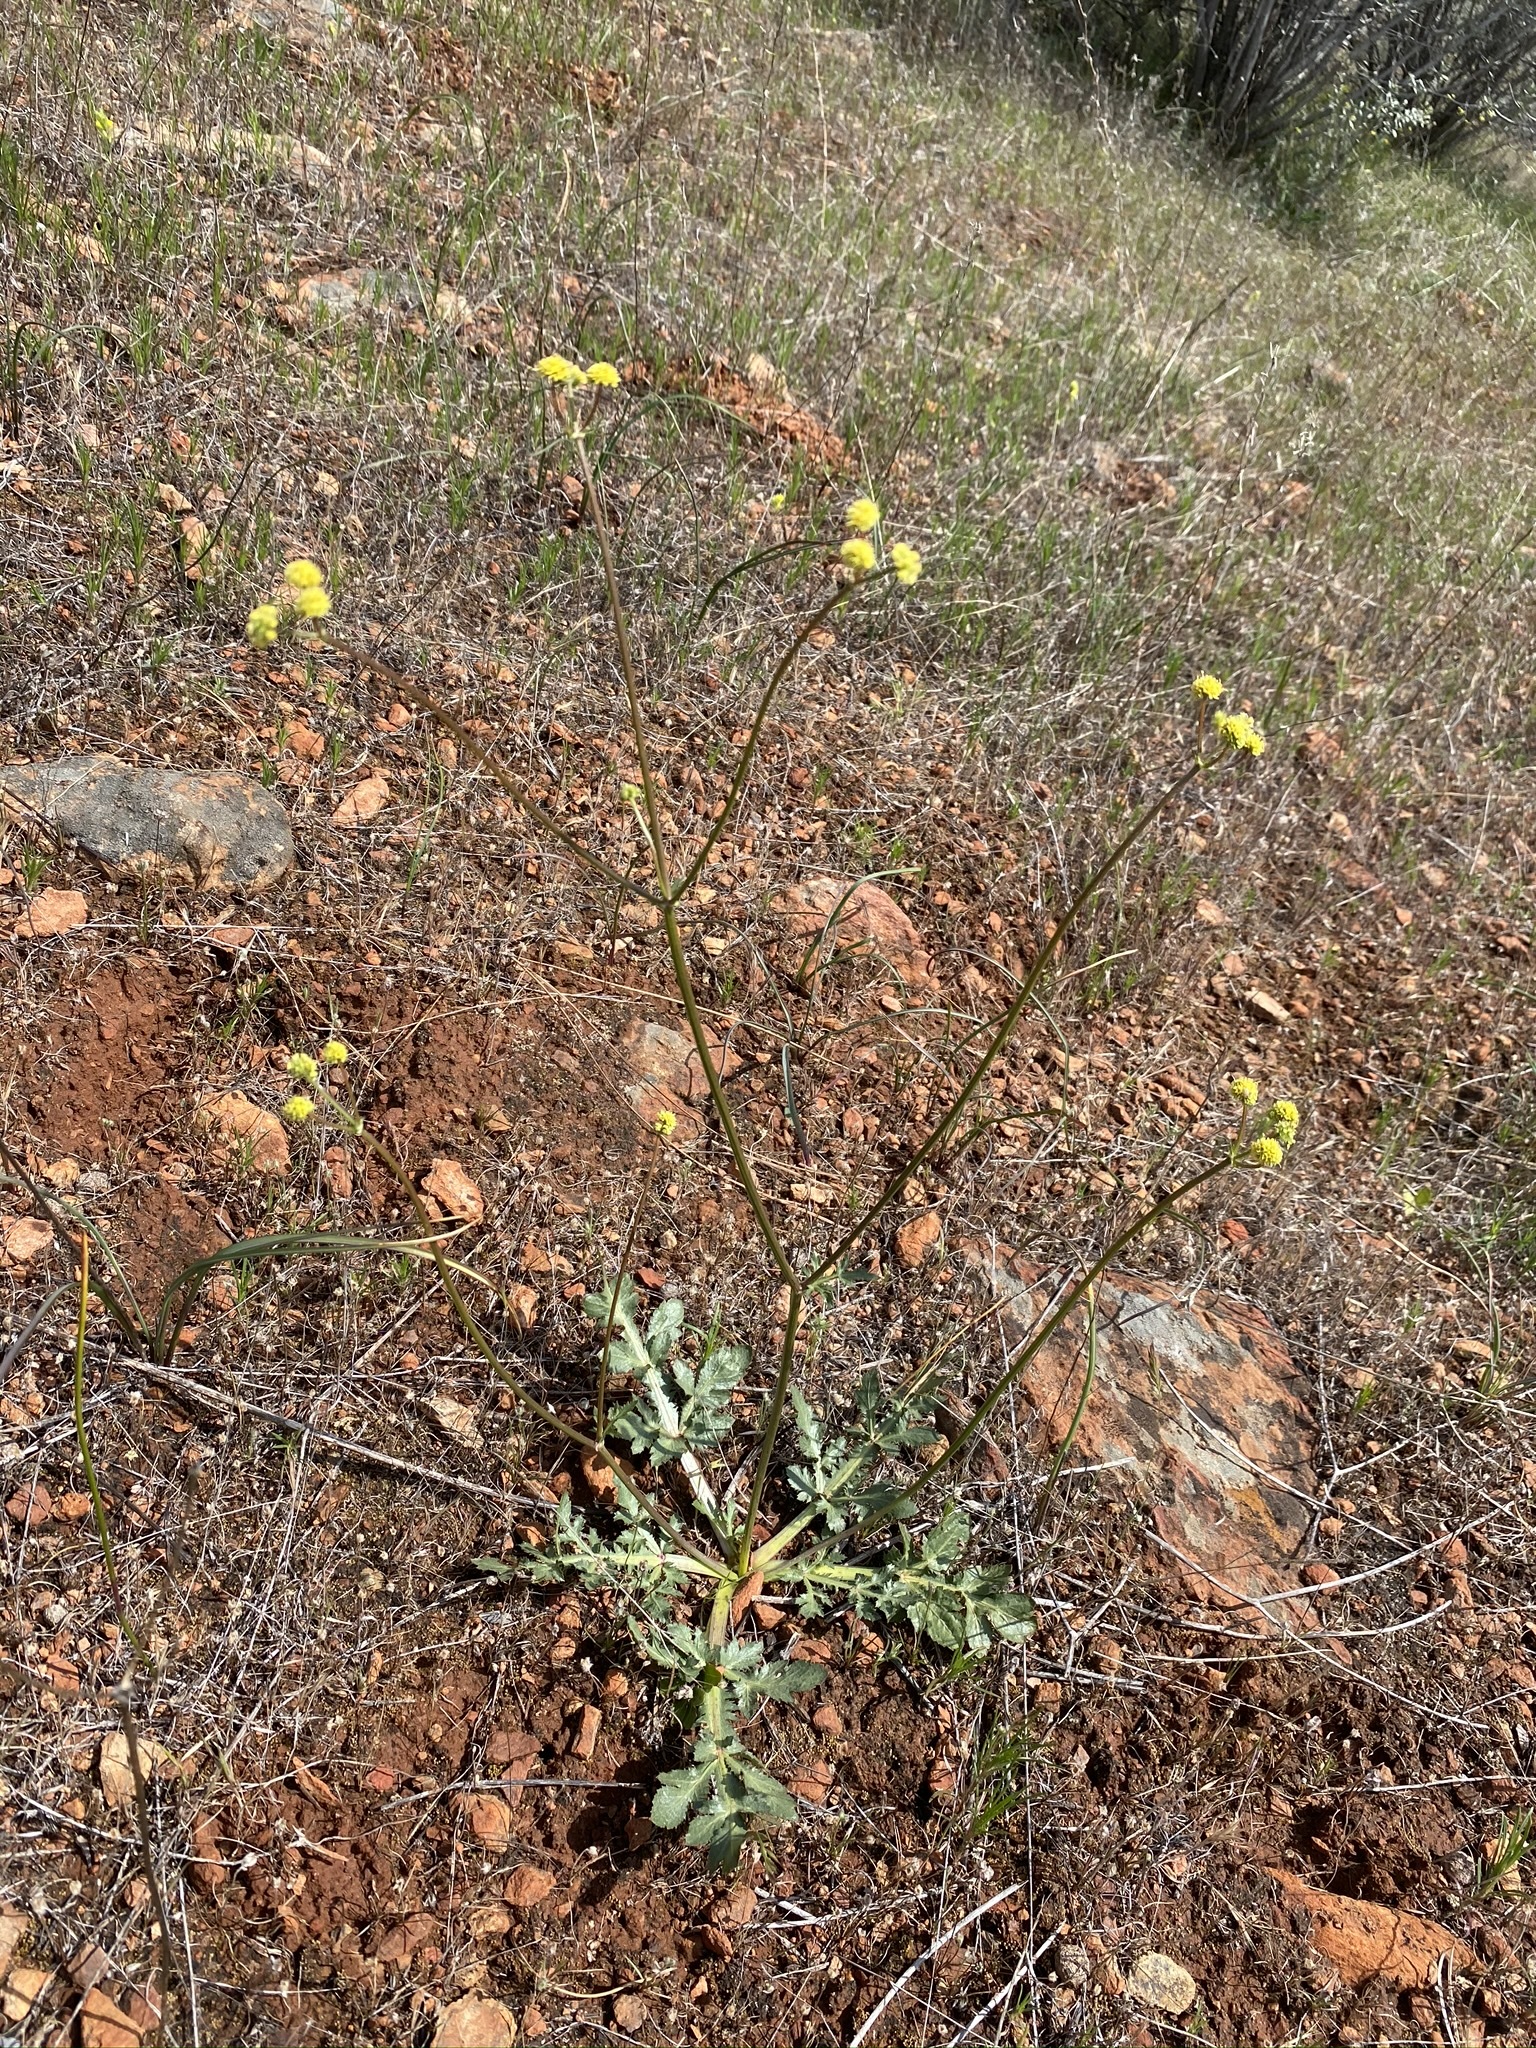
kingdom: Plantae
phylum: Tracheophyta
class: Magnoliopsida
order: Apiales
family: Apiaceae
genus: Sanicula
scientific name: Sanicula bipinnatifida
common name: Shoe-buttons
